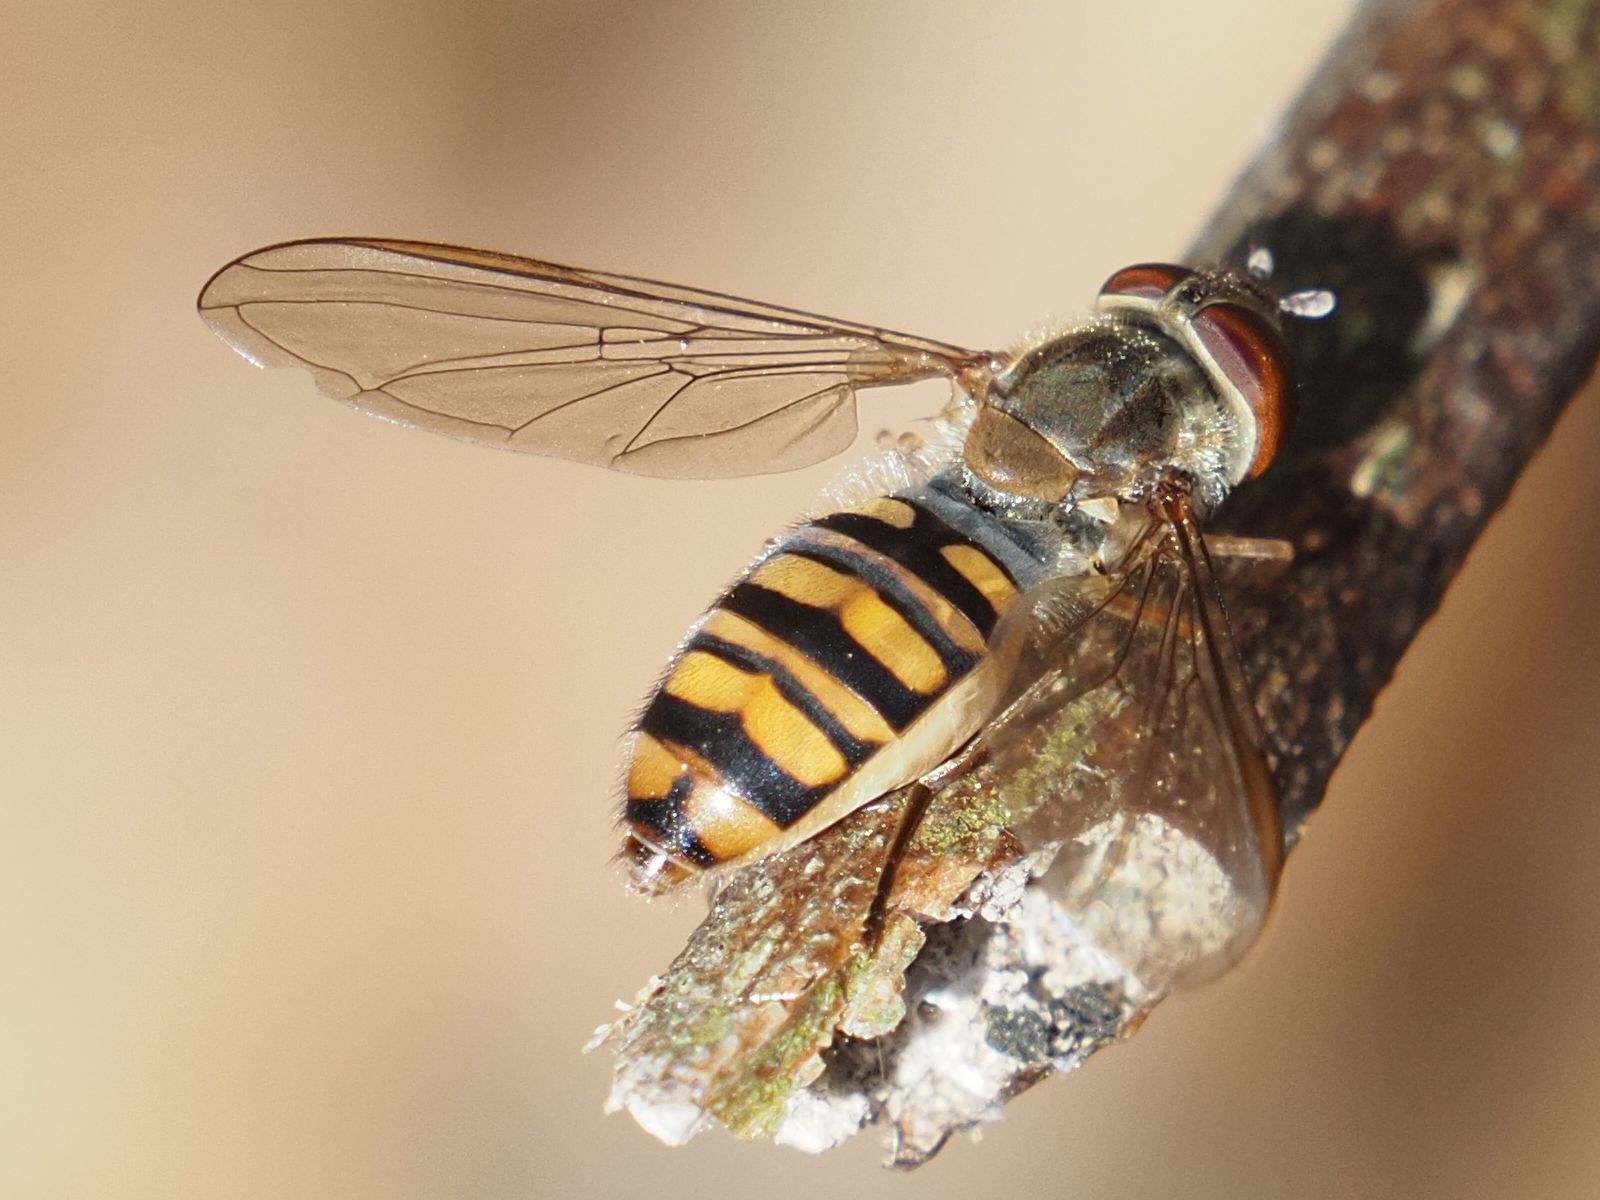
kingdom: Animalia
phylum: Arthropoda
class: Insecta
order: Diptera
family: Syrphidae
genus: Episyrphus
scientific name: Episyrphus balteatus
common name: Marmalade hoverfly
